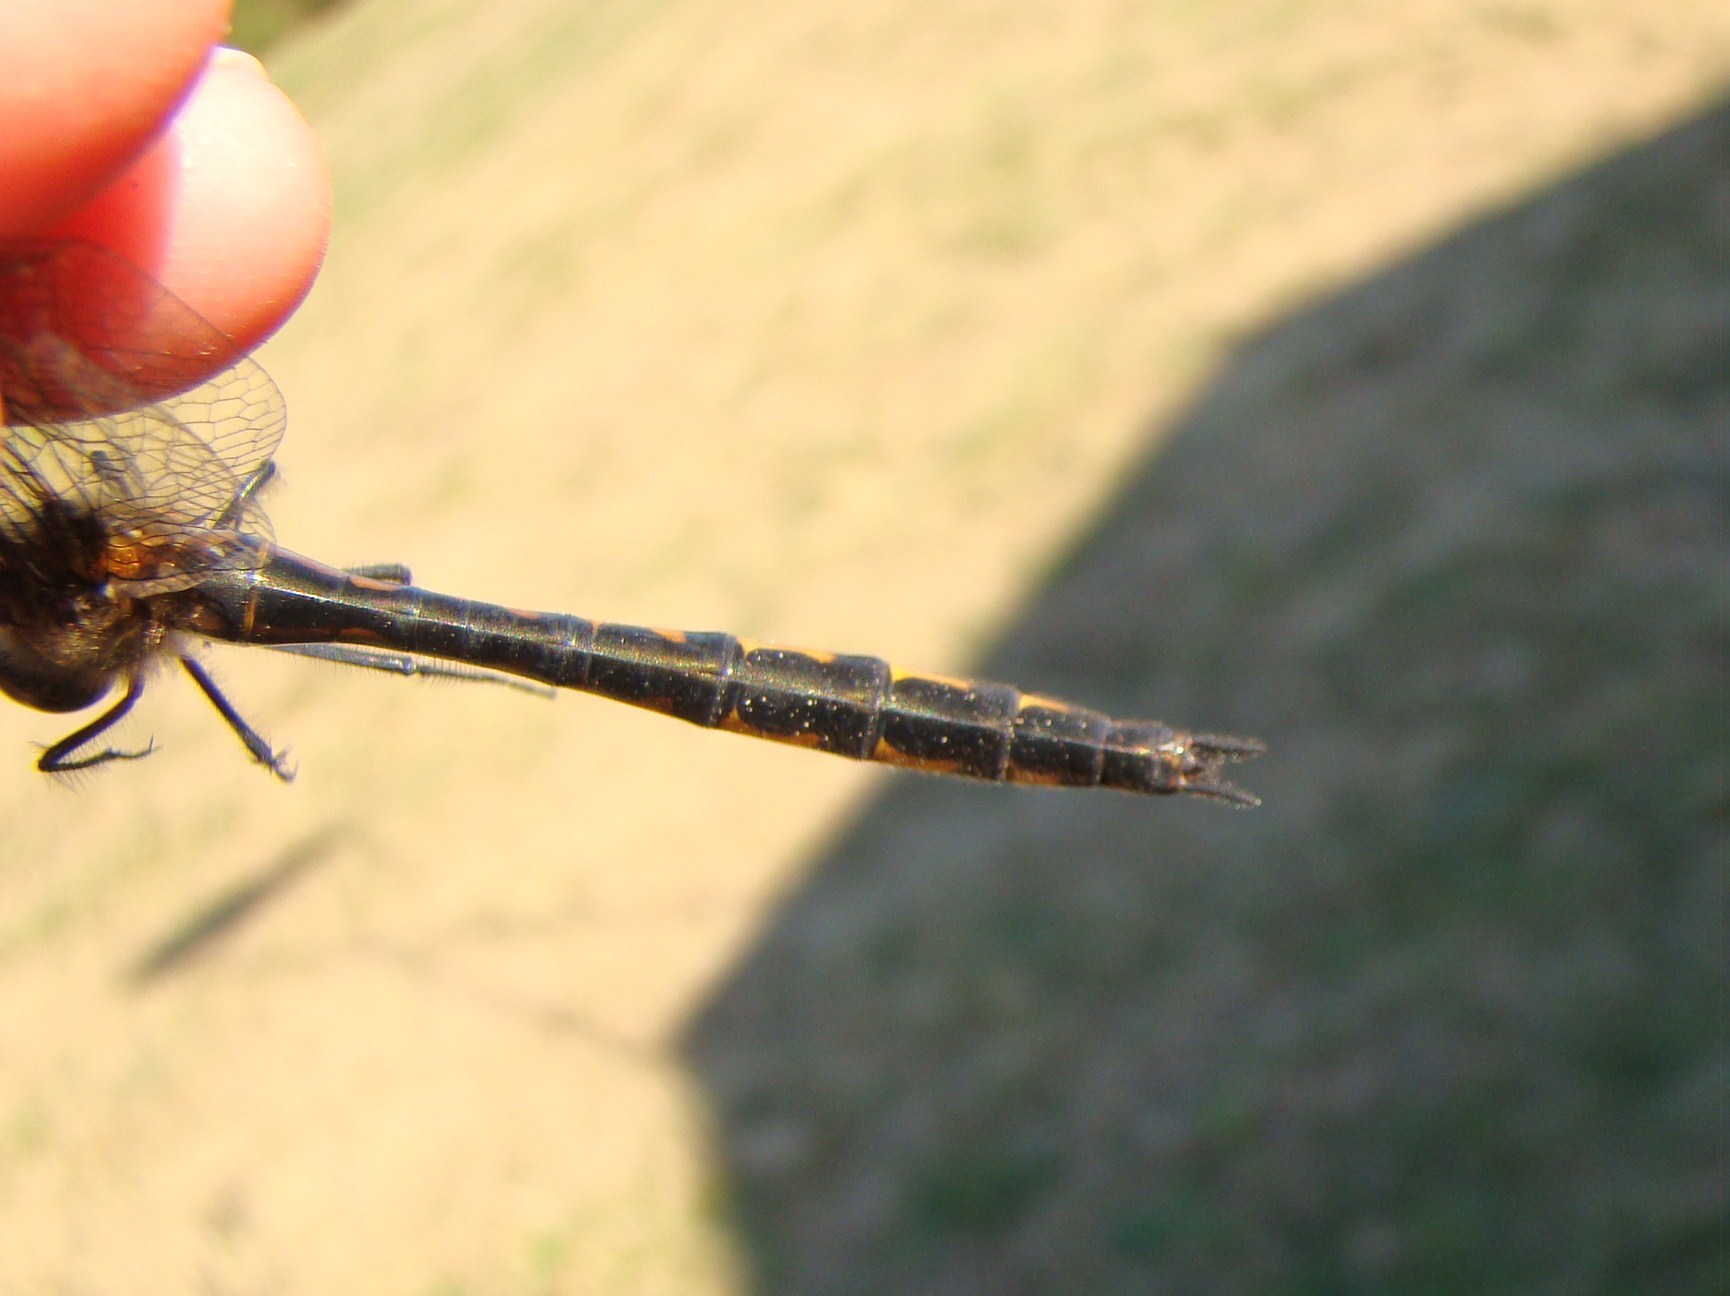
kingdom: Animalia
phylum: Arthropoda
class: Insecta
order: Odonata
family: Corduliidae
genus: Hemicordulia
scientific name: Hemicordulia armstrongi
